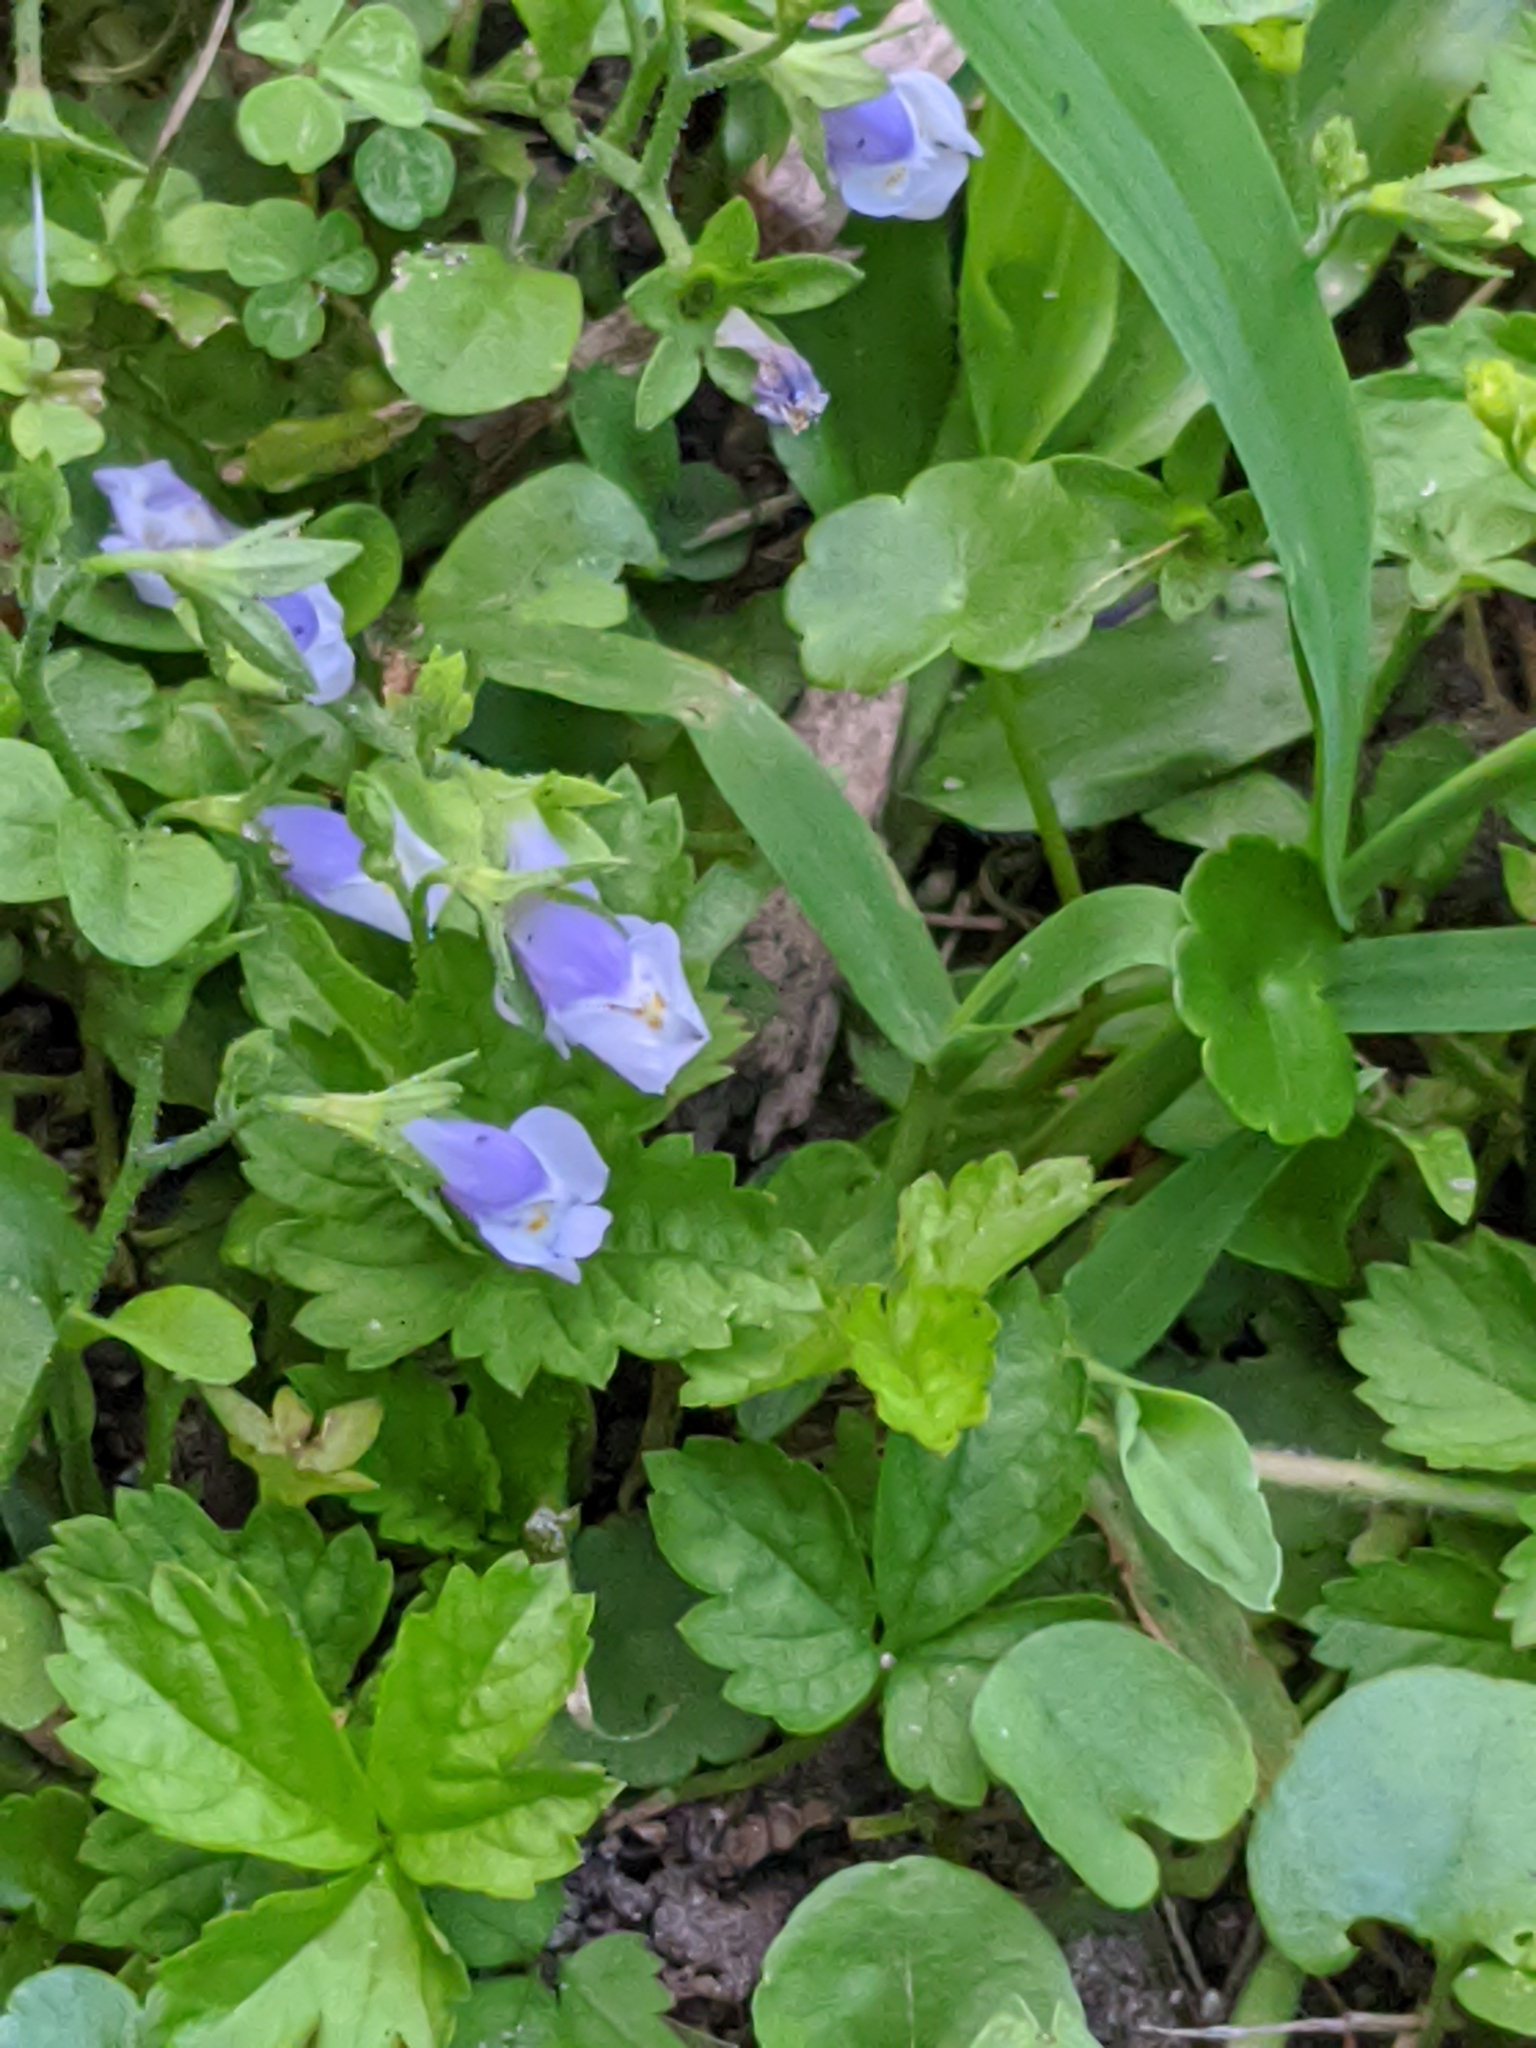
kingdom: Plantae
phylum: Tracheophyta
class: Magnoliopsida
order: Lamiales
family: Mazaceae
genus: Mazus
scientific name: Mazus pumilus
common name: Japanese mazus
